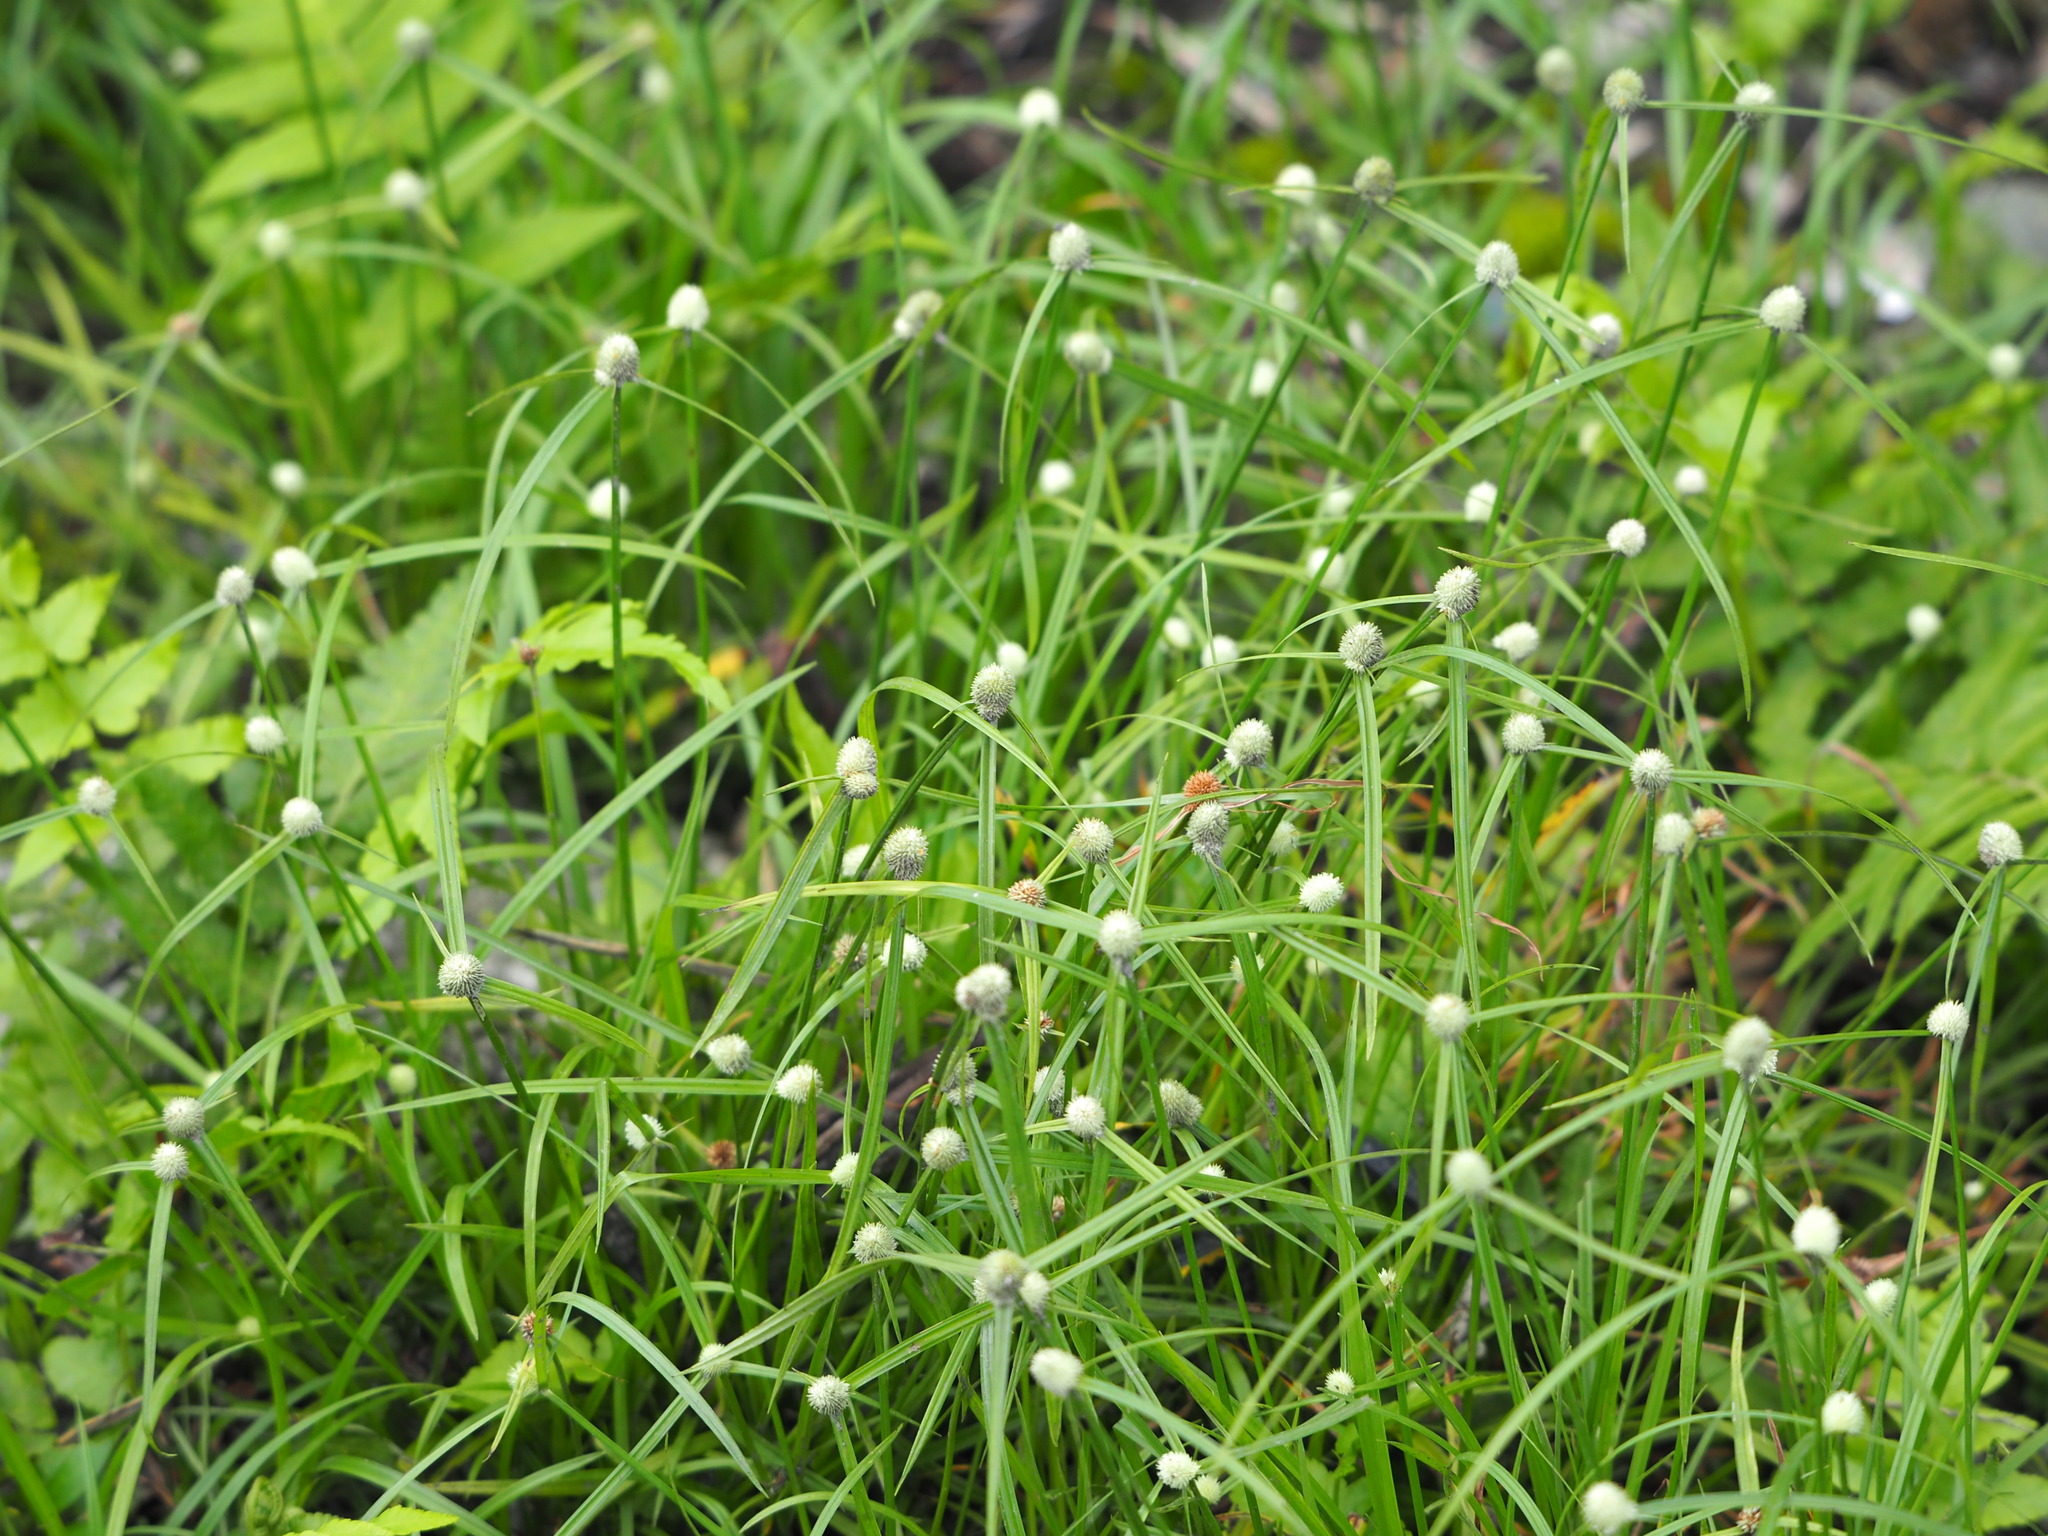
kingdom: Plantae
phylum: Tracheophyta
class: Liliopsida
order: Poales
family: Cyperaceae
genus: Cyperus
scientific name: Cyperus mindorensis
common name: Flatsedge
